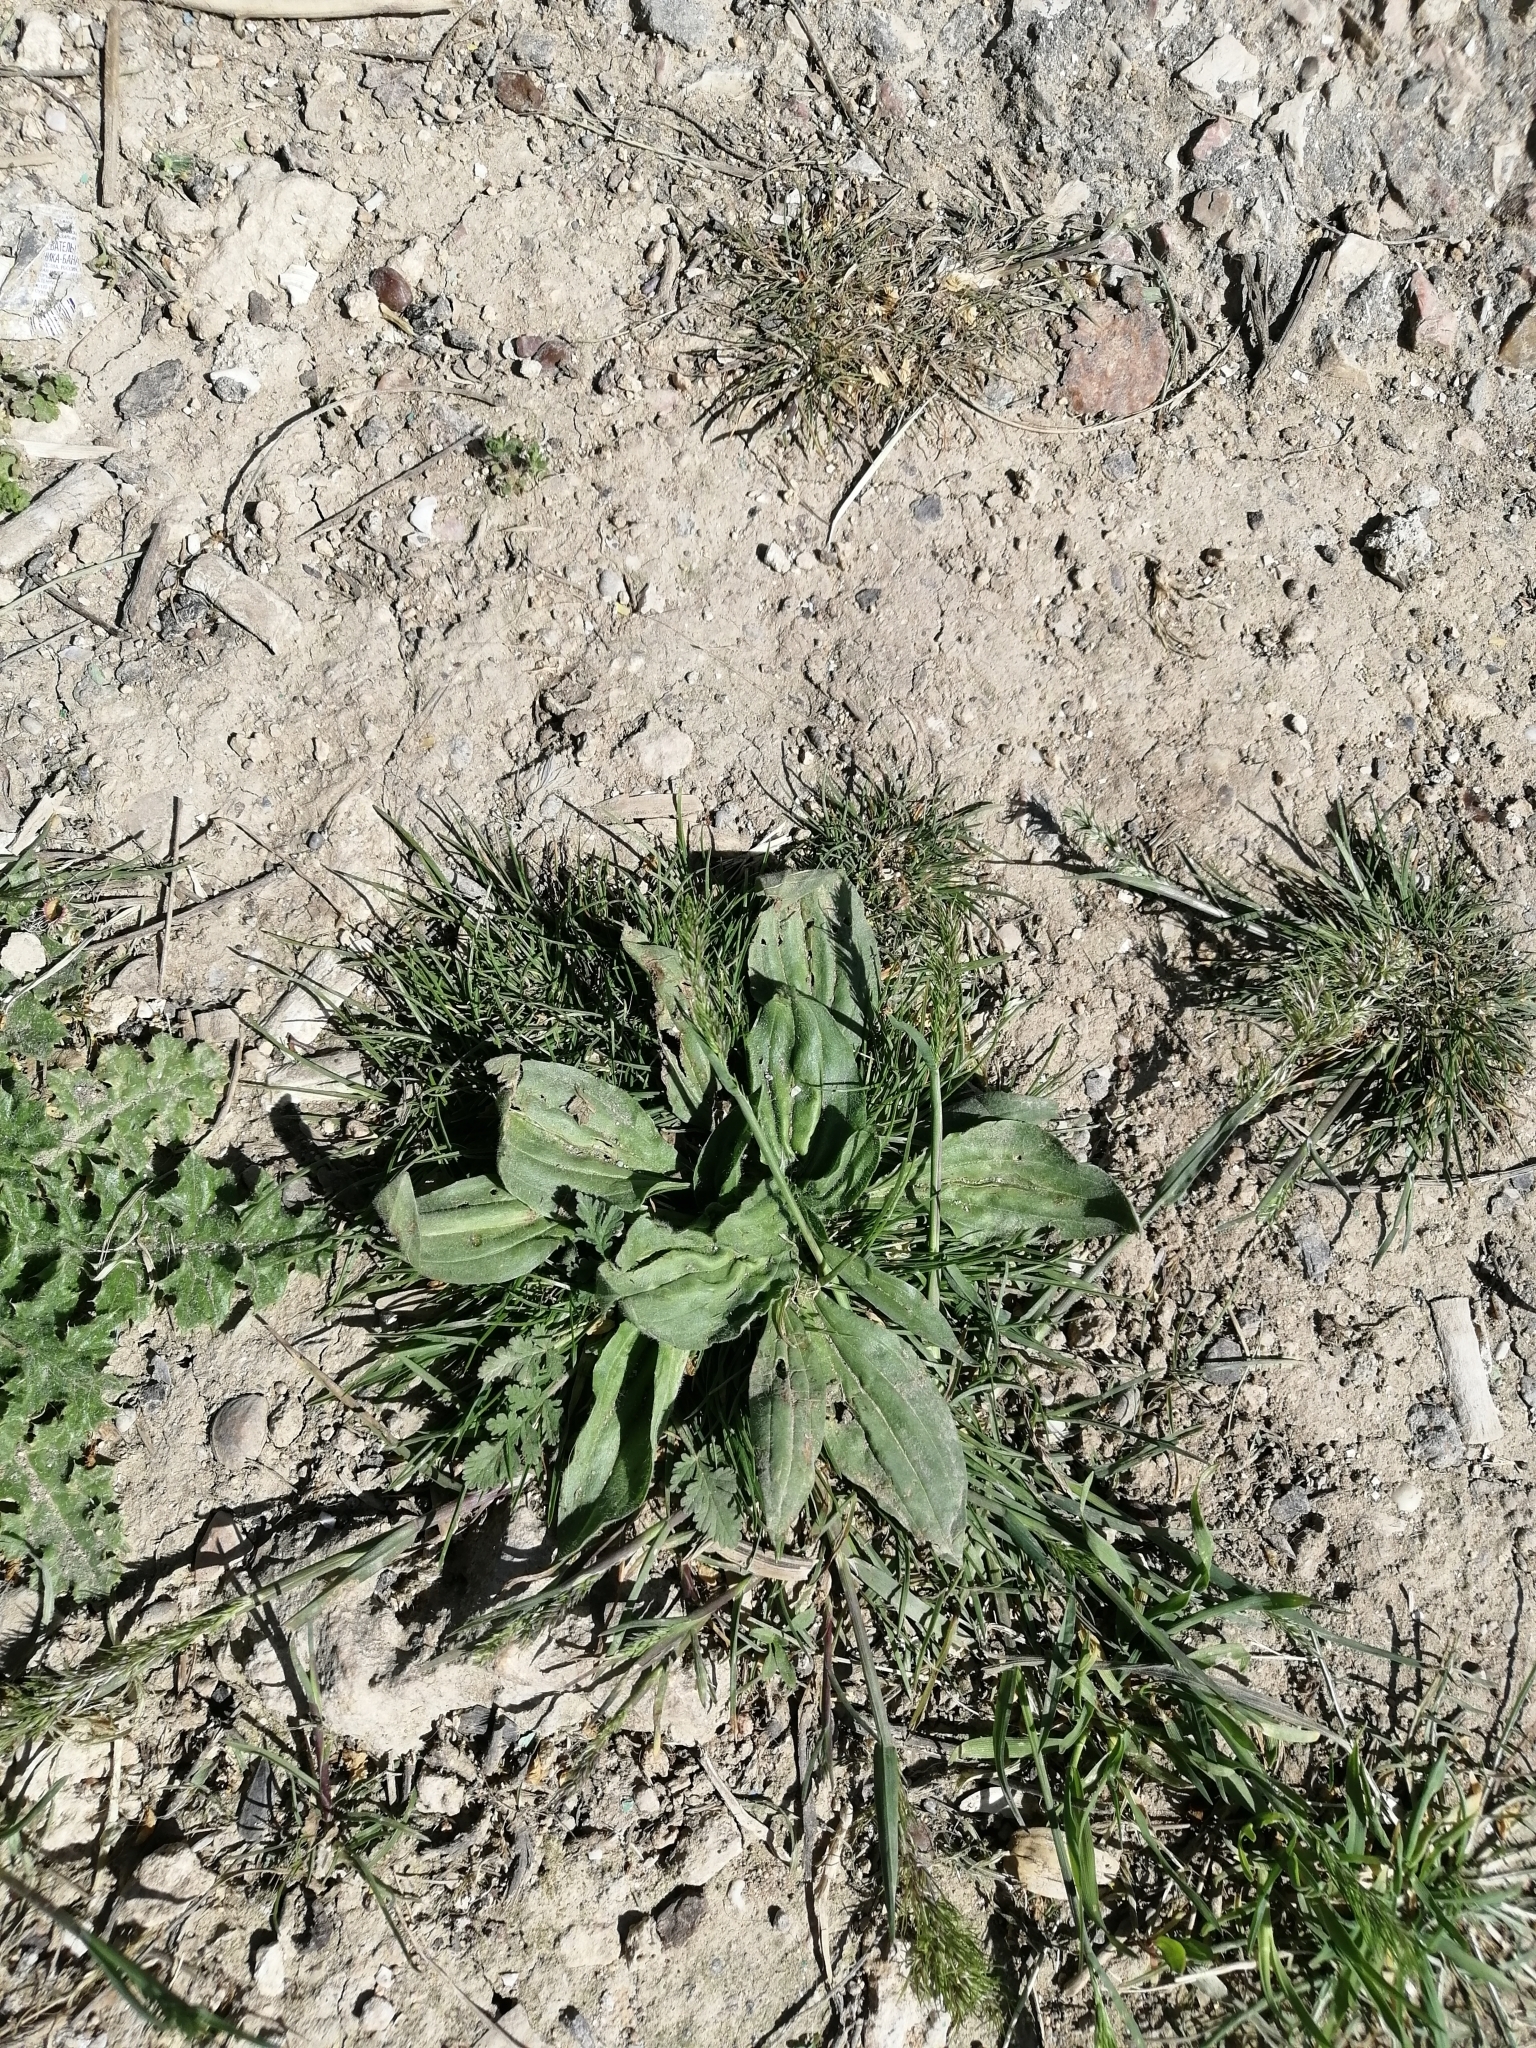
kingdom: Plantae
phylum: Tracheophyta
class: Magnoliopsida
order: Lamiales
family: Plantaginaceae
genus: Plantago
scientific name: Plantago media
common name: Hoary plantain
